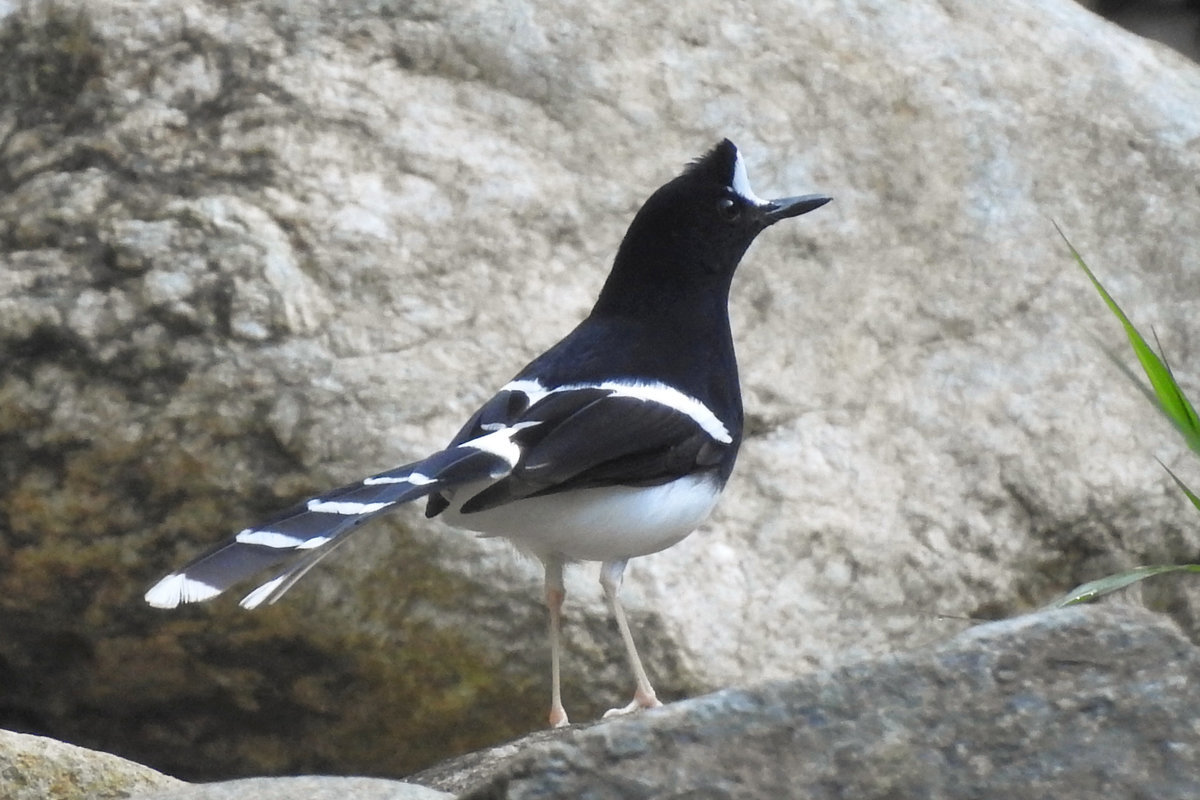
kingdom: Animalia
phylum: Chordata
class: Aves
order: Passeriformes
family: Muscicapidae
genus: Enicurus
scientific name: Enicurus leschenaulti
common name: White-crowned forktail
